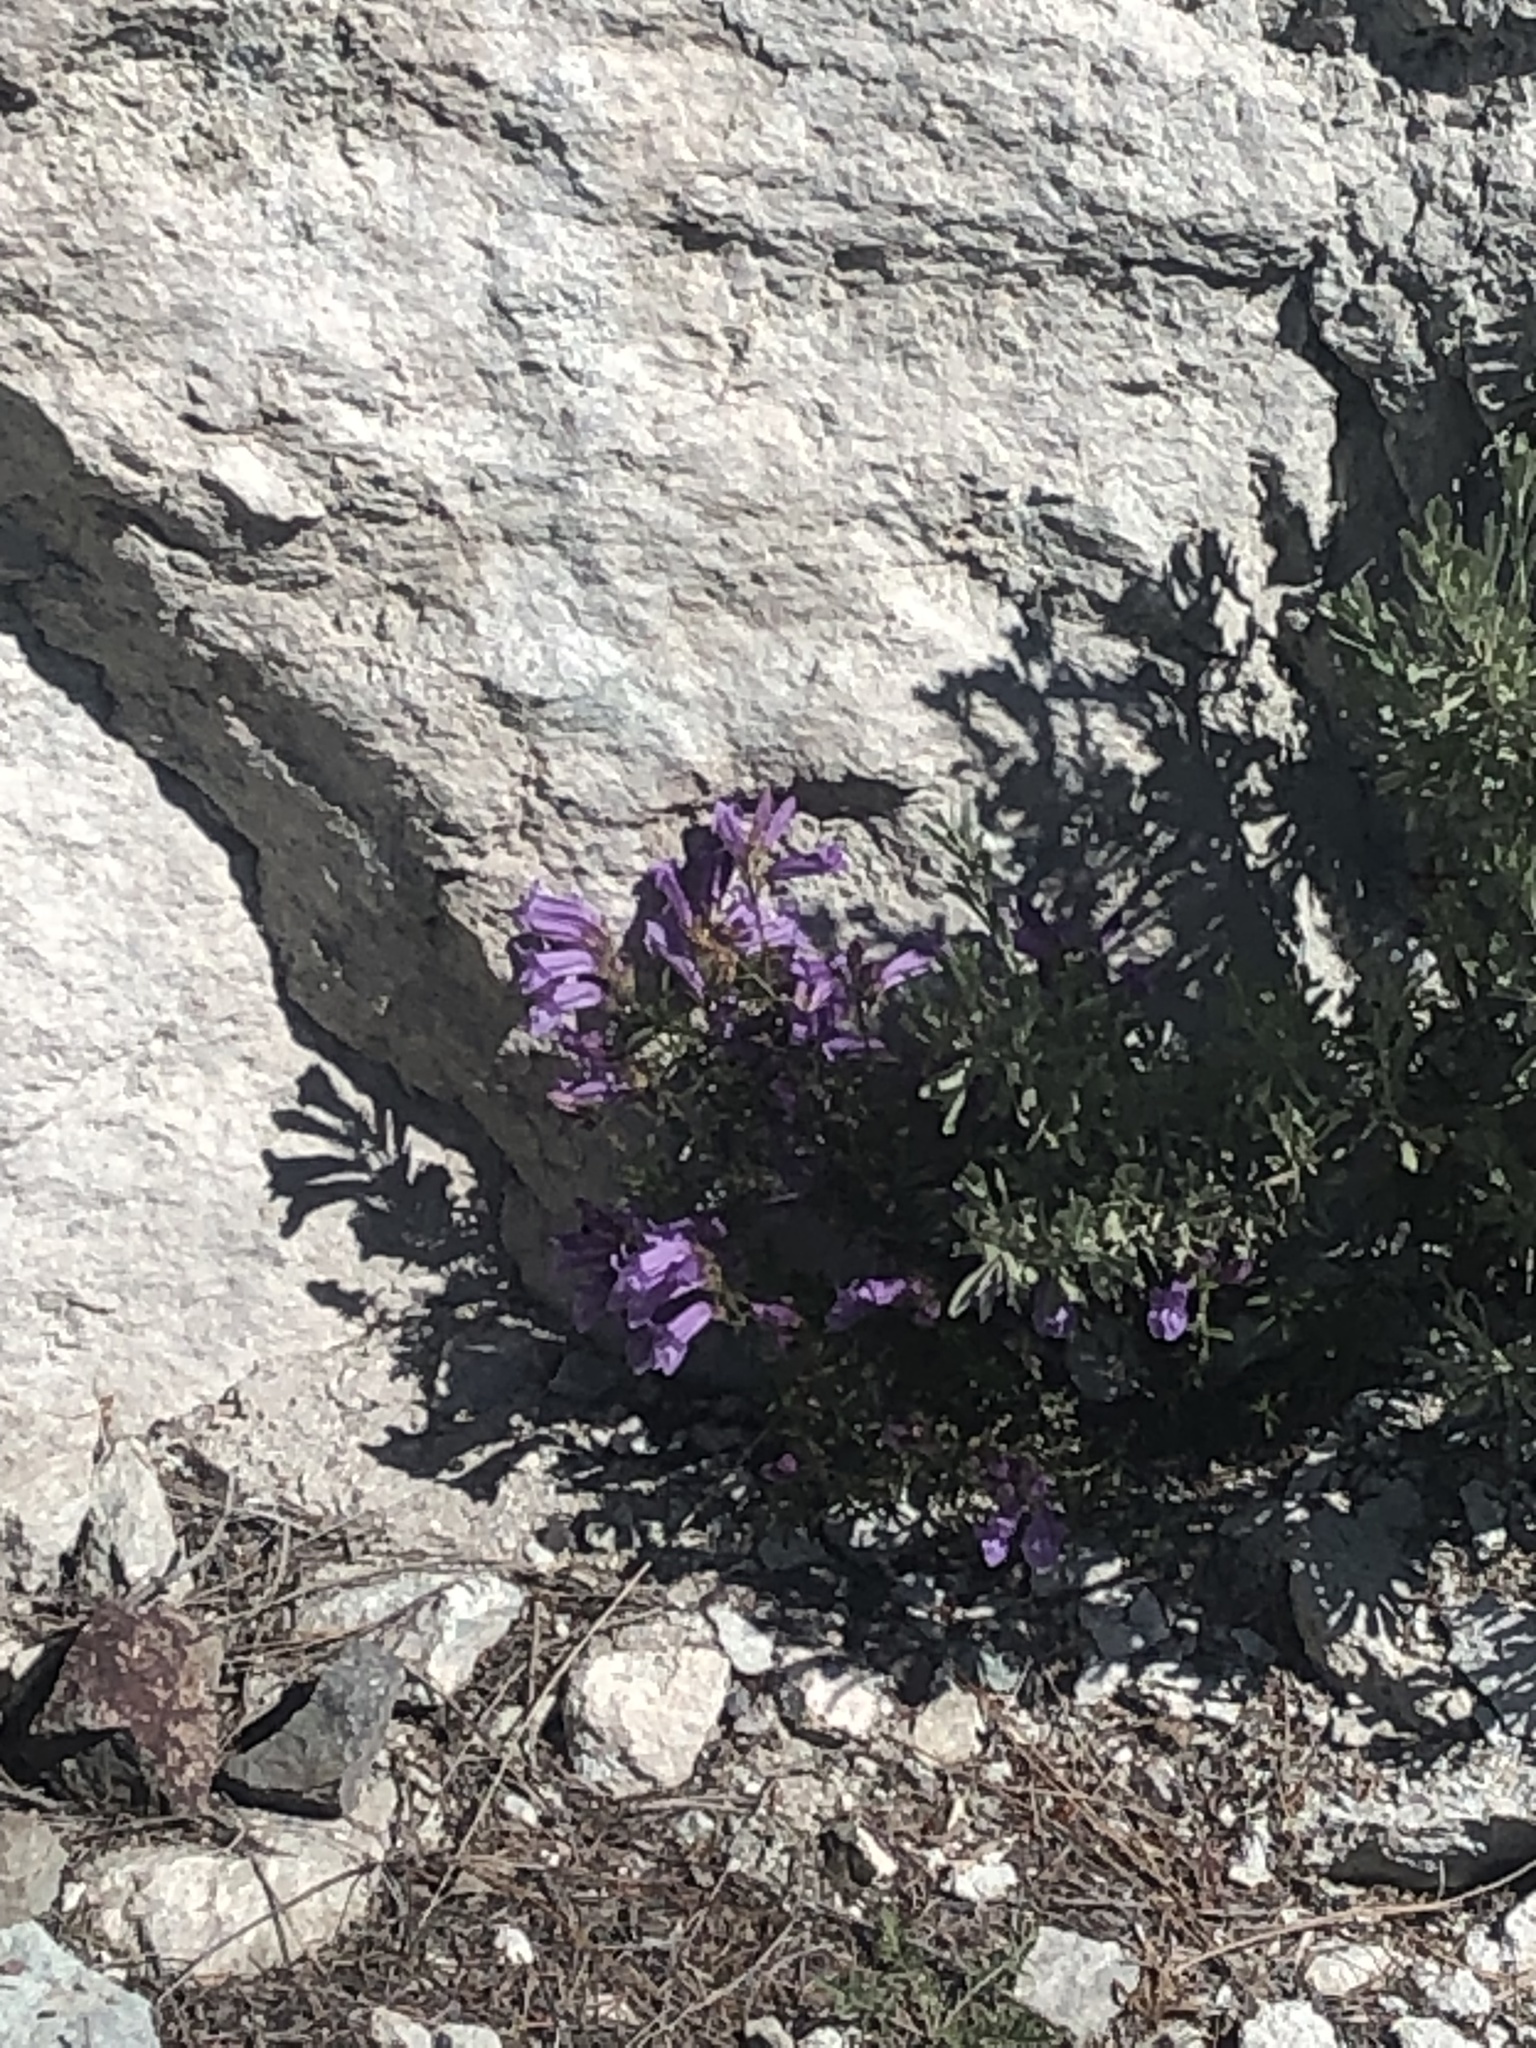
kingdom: Plantae
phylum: Tracheophyta
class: Magnoliopsida
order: Lamiales
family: Plantaginaceae
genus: Penstemon
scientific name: Penstemon fruticosus
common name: Bush penstemon
